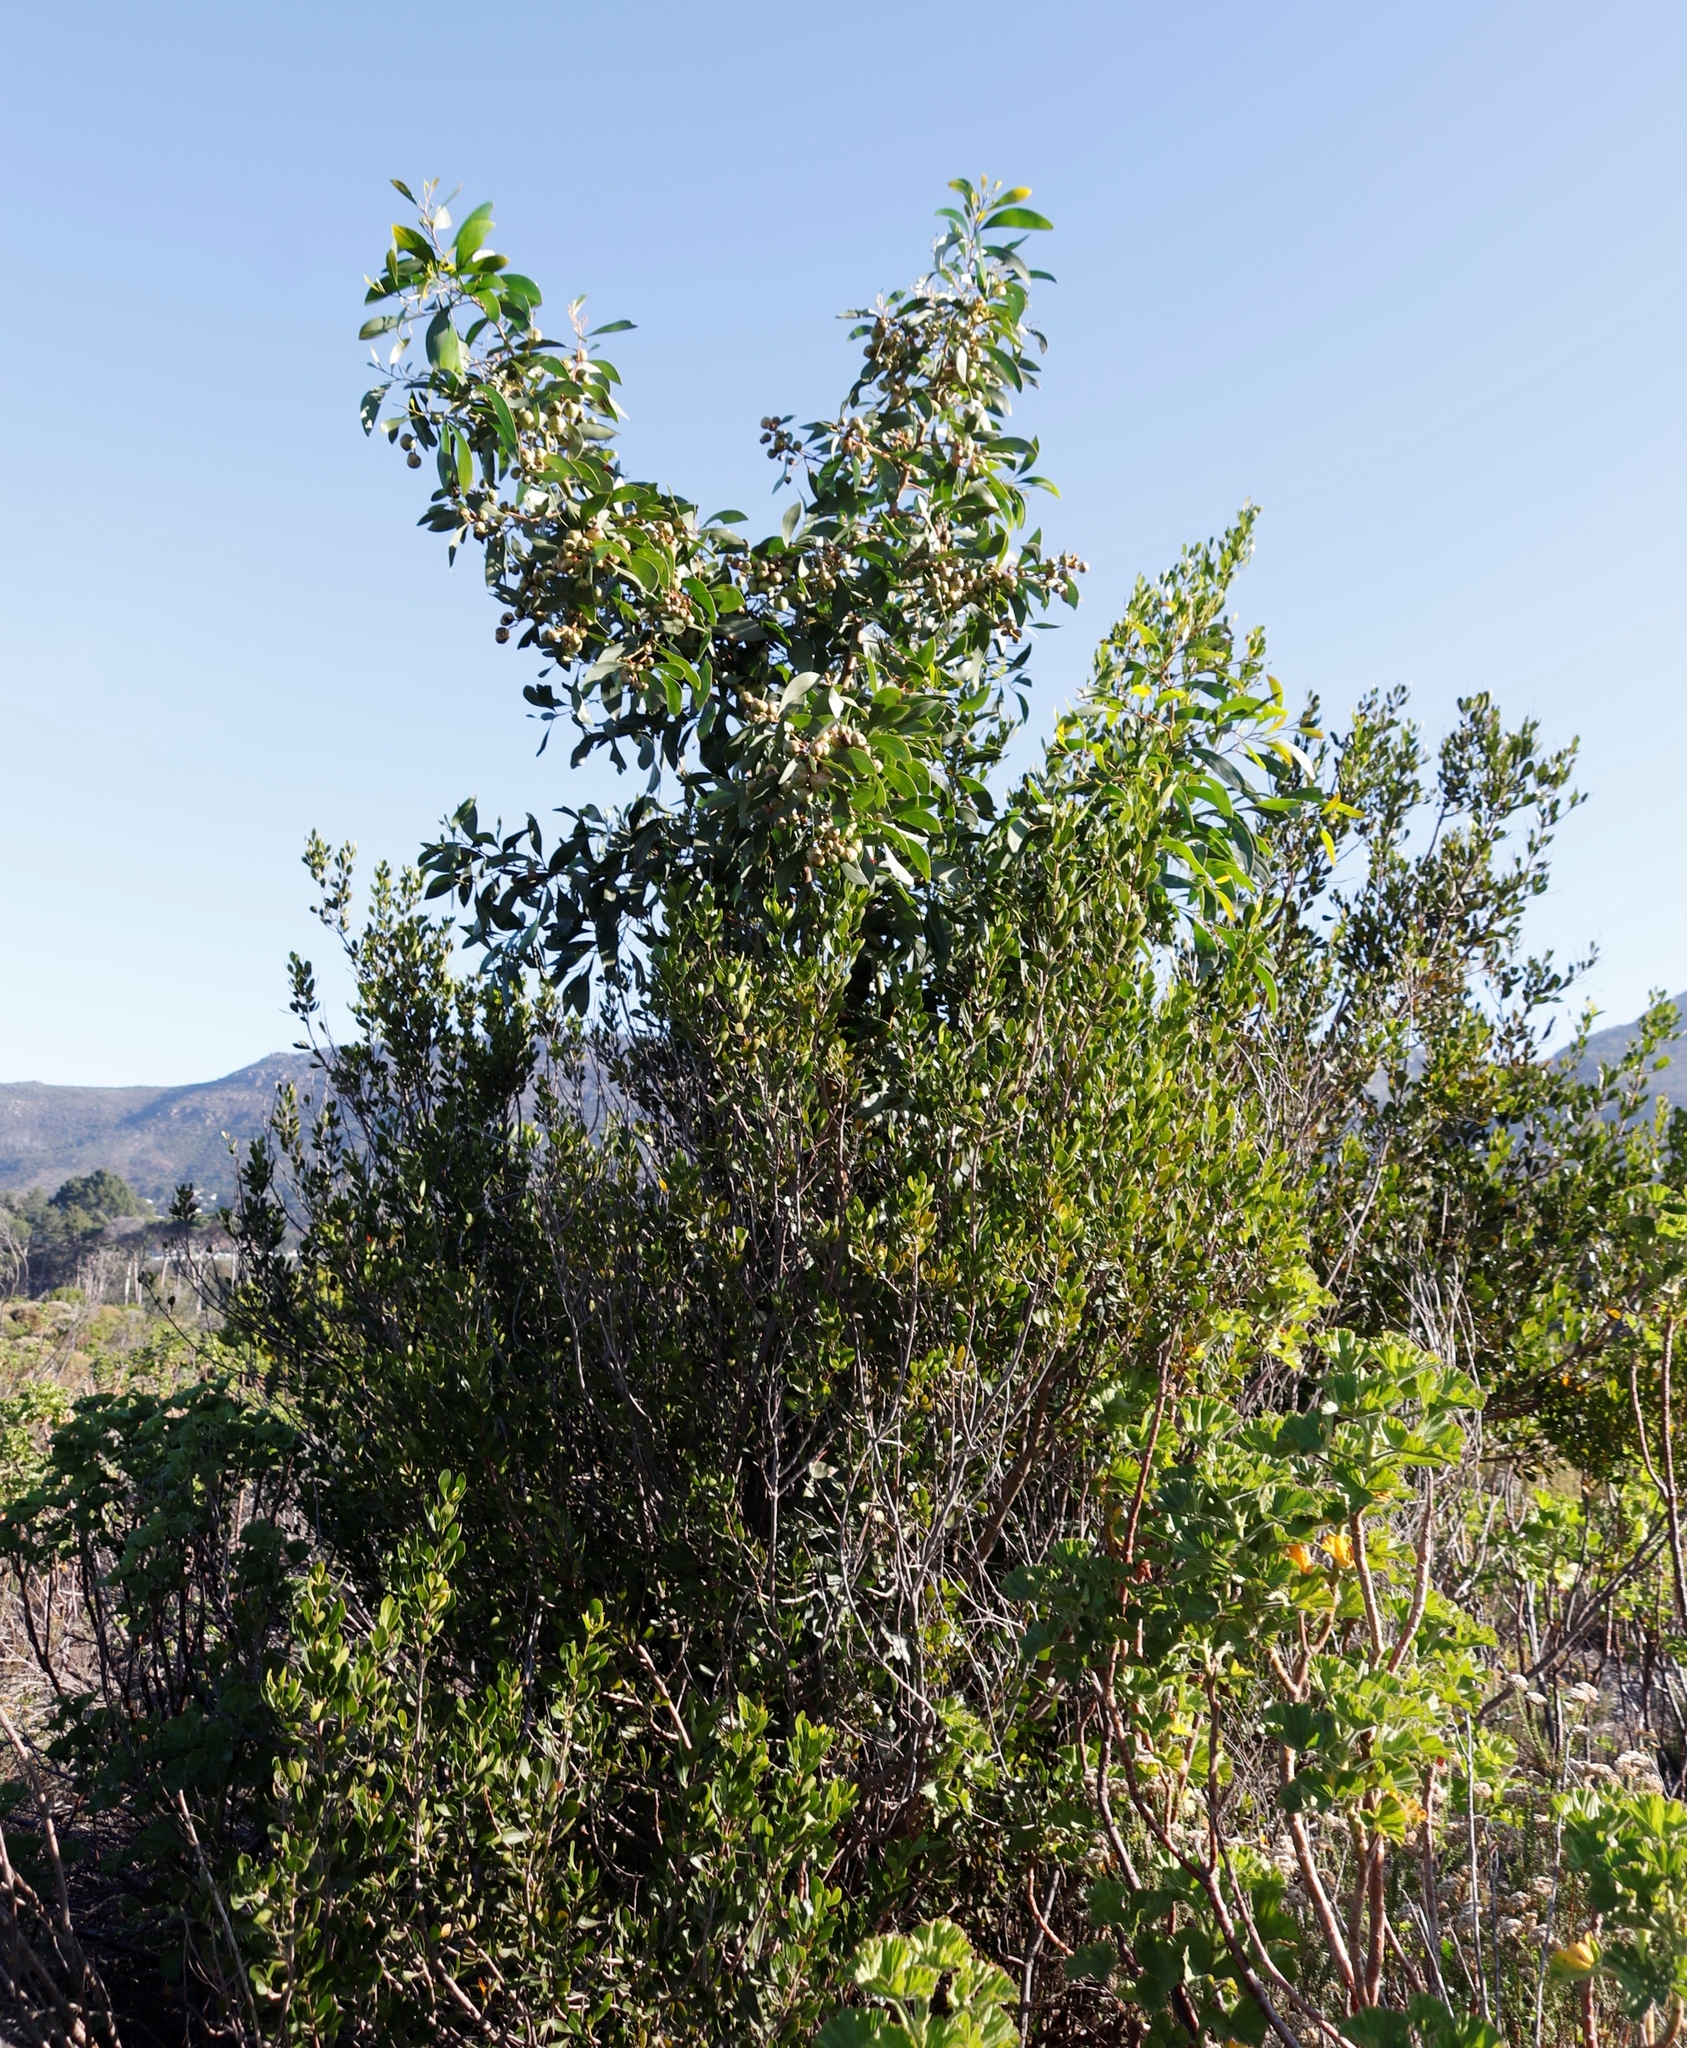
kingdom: Animalia
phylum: Arthropoda
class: Insecta
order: Hymenoptera
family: Pteromalidae
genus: Trichilogaster
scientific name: Trichilogaster signiventris
